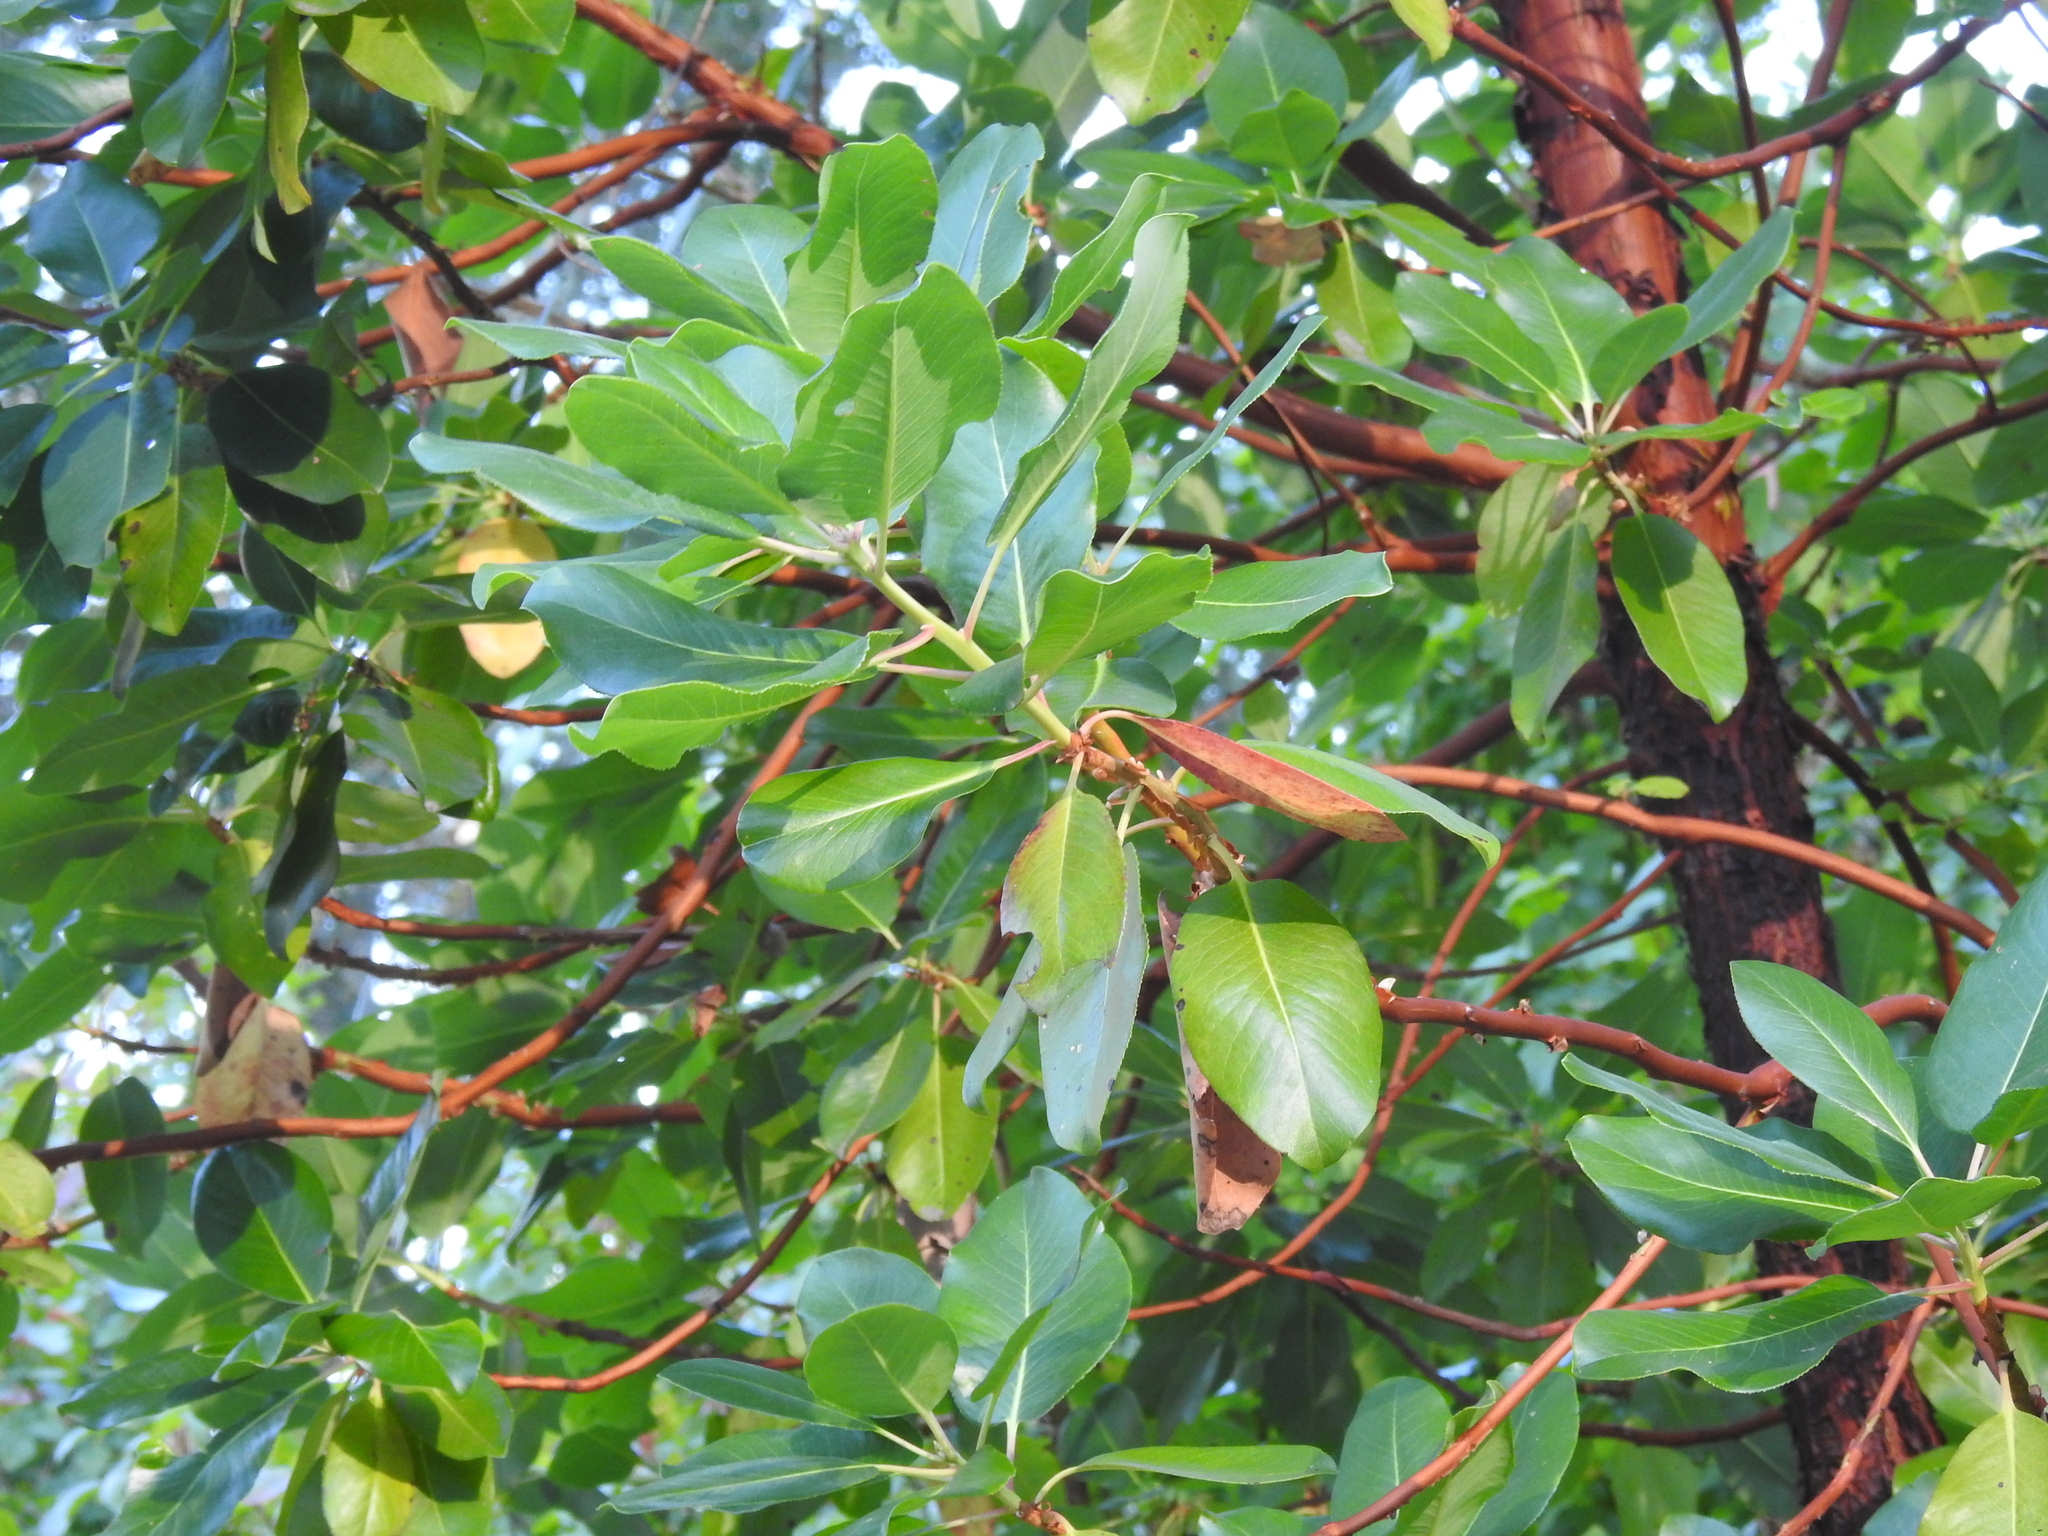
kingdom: Plantae
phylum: Tracheophyta
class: Magnoliopsida
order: Ericales
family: Ericaceae
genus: Arbutus
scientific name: Arbutus menziesii
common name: Pacific madrone
